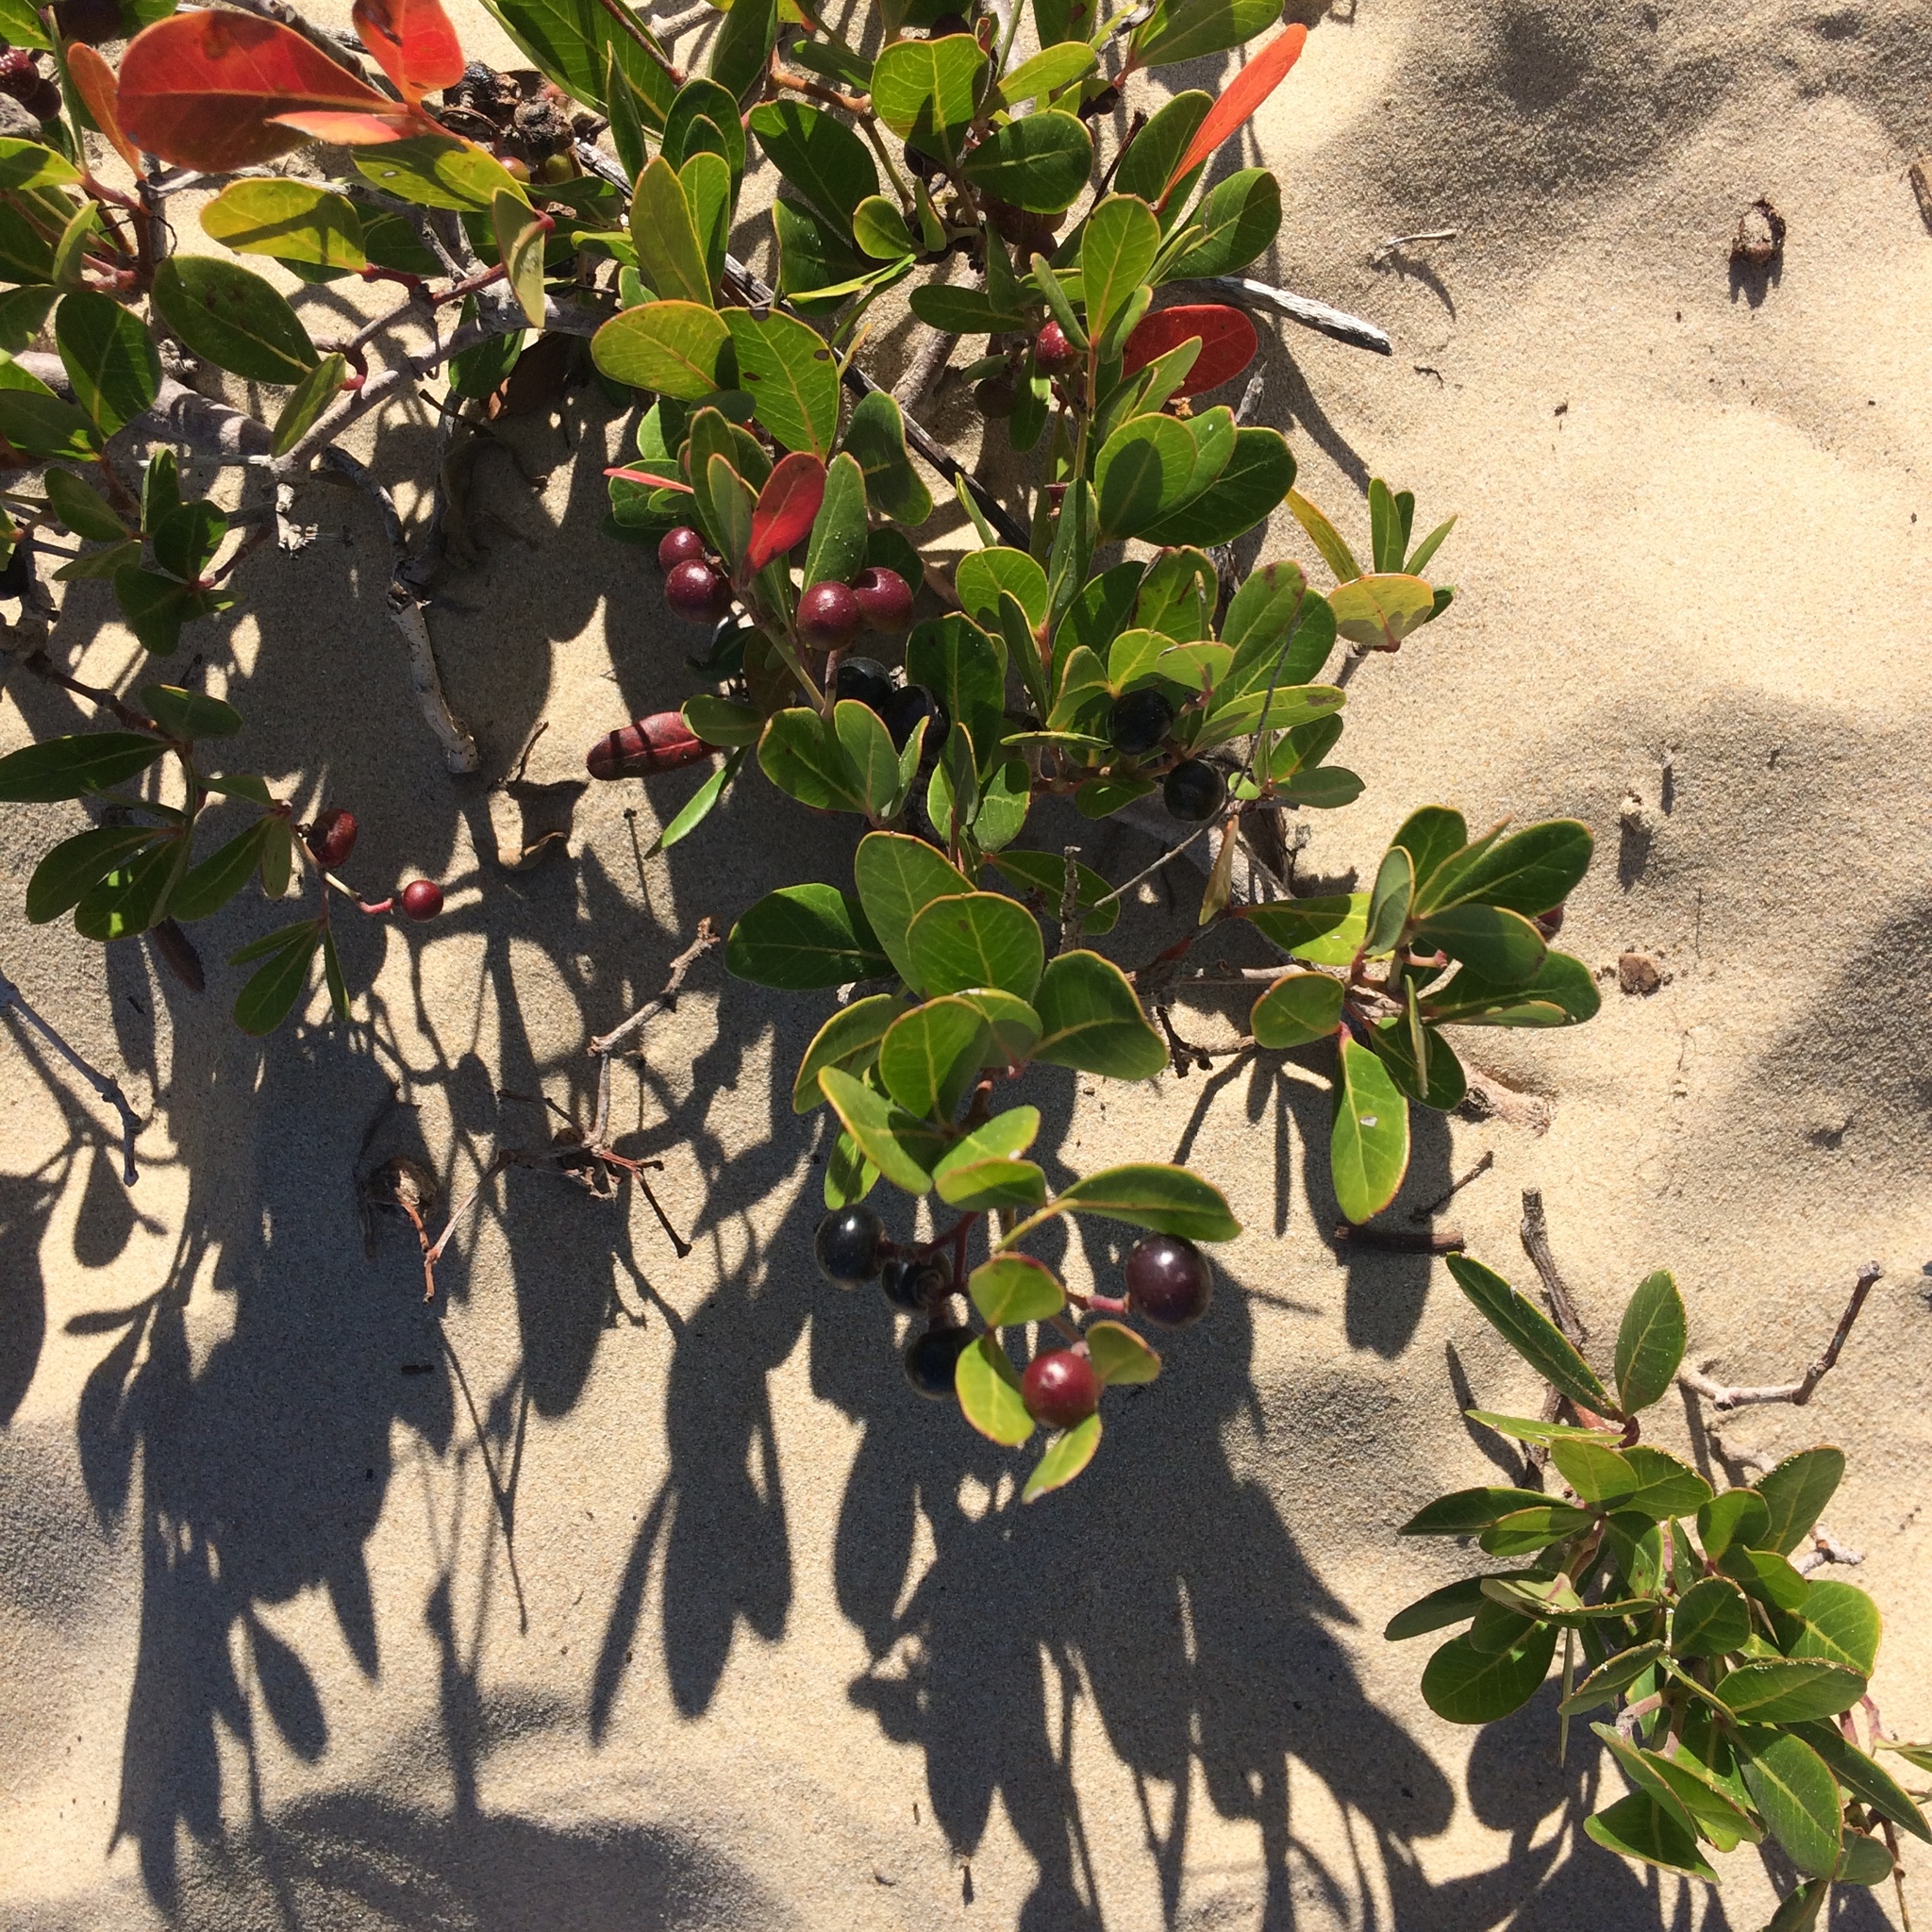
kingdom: Plantae
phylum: Tracheophyta
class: Magnoliopsida
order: Vitales
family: Vitaceae
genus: Rhoicissus
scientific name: Rhoicissus digitata
